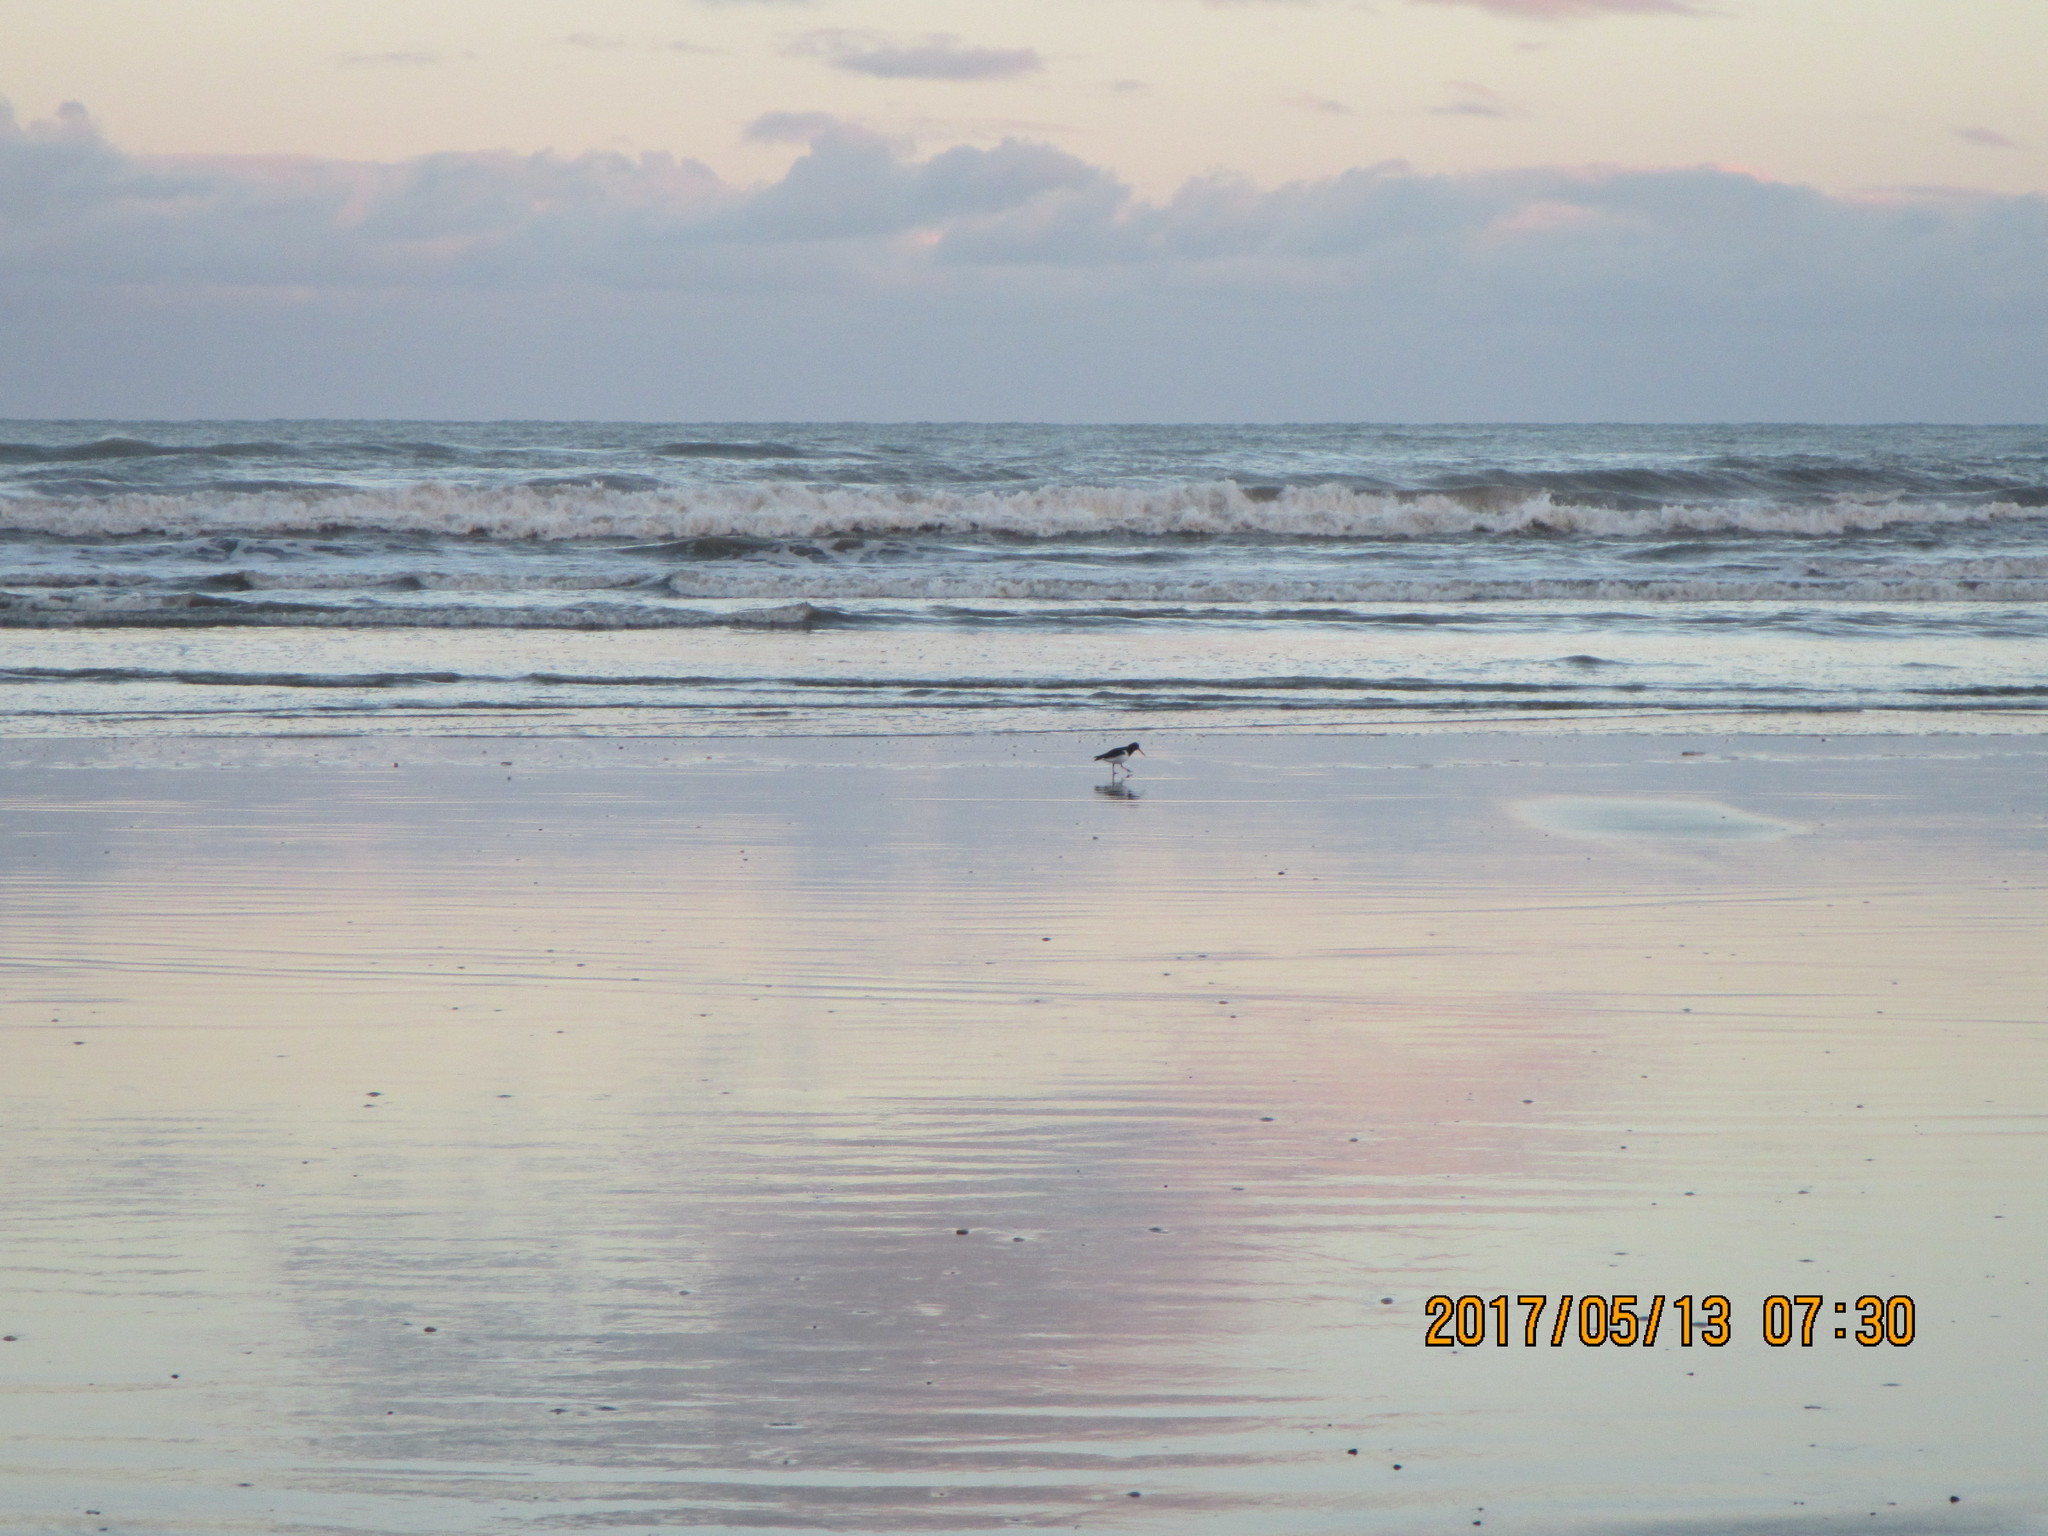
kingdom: Animalia
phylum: Chordata
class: Aves
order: Charadriiformes
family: Haematopodidae
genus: Haematopus
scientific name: Haematopus finschi
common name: South island oystercatcher
